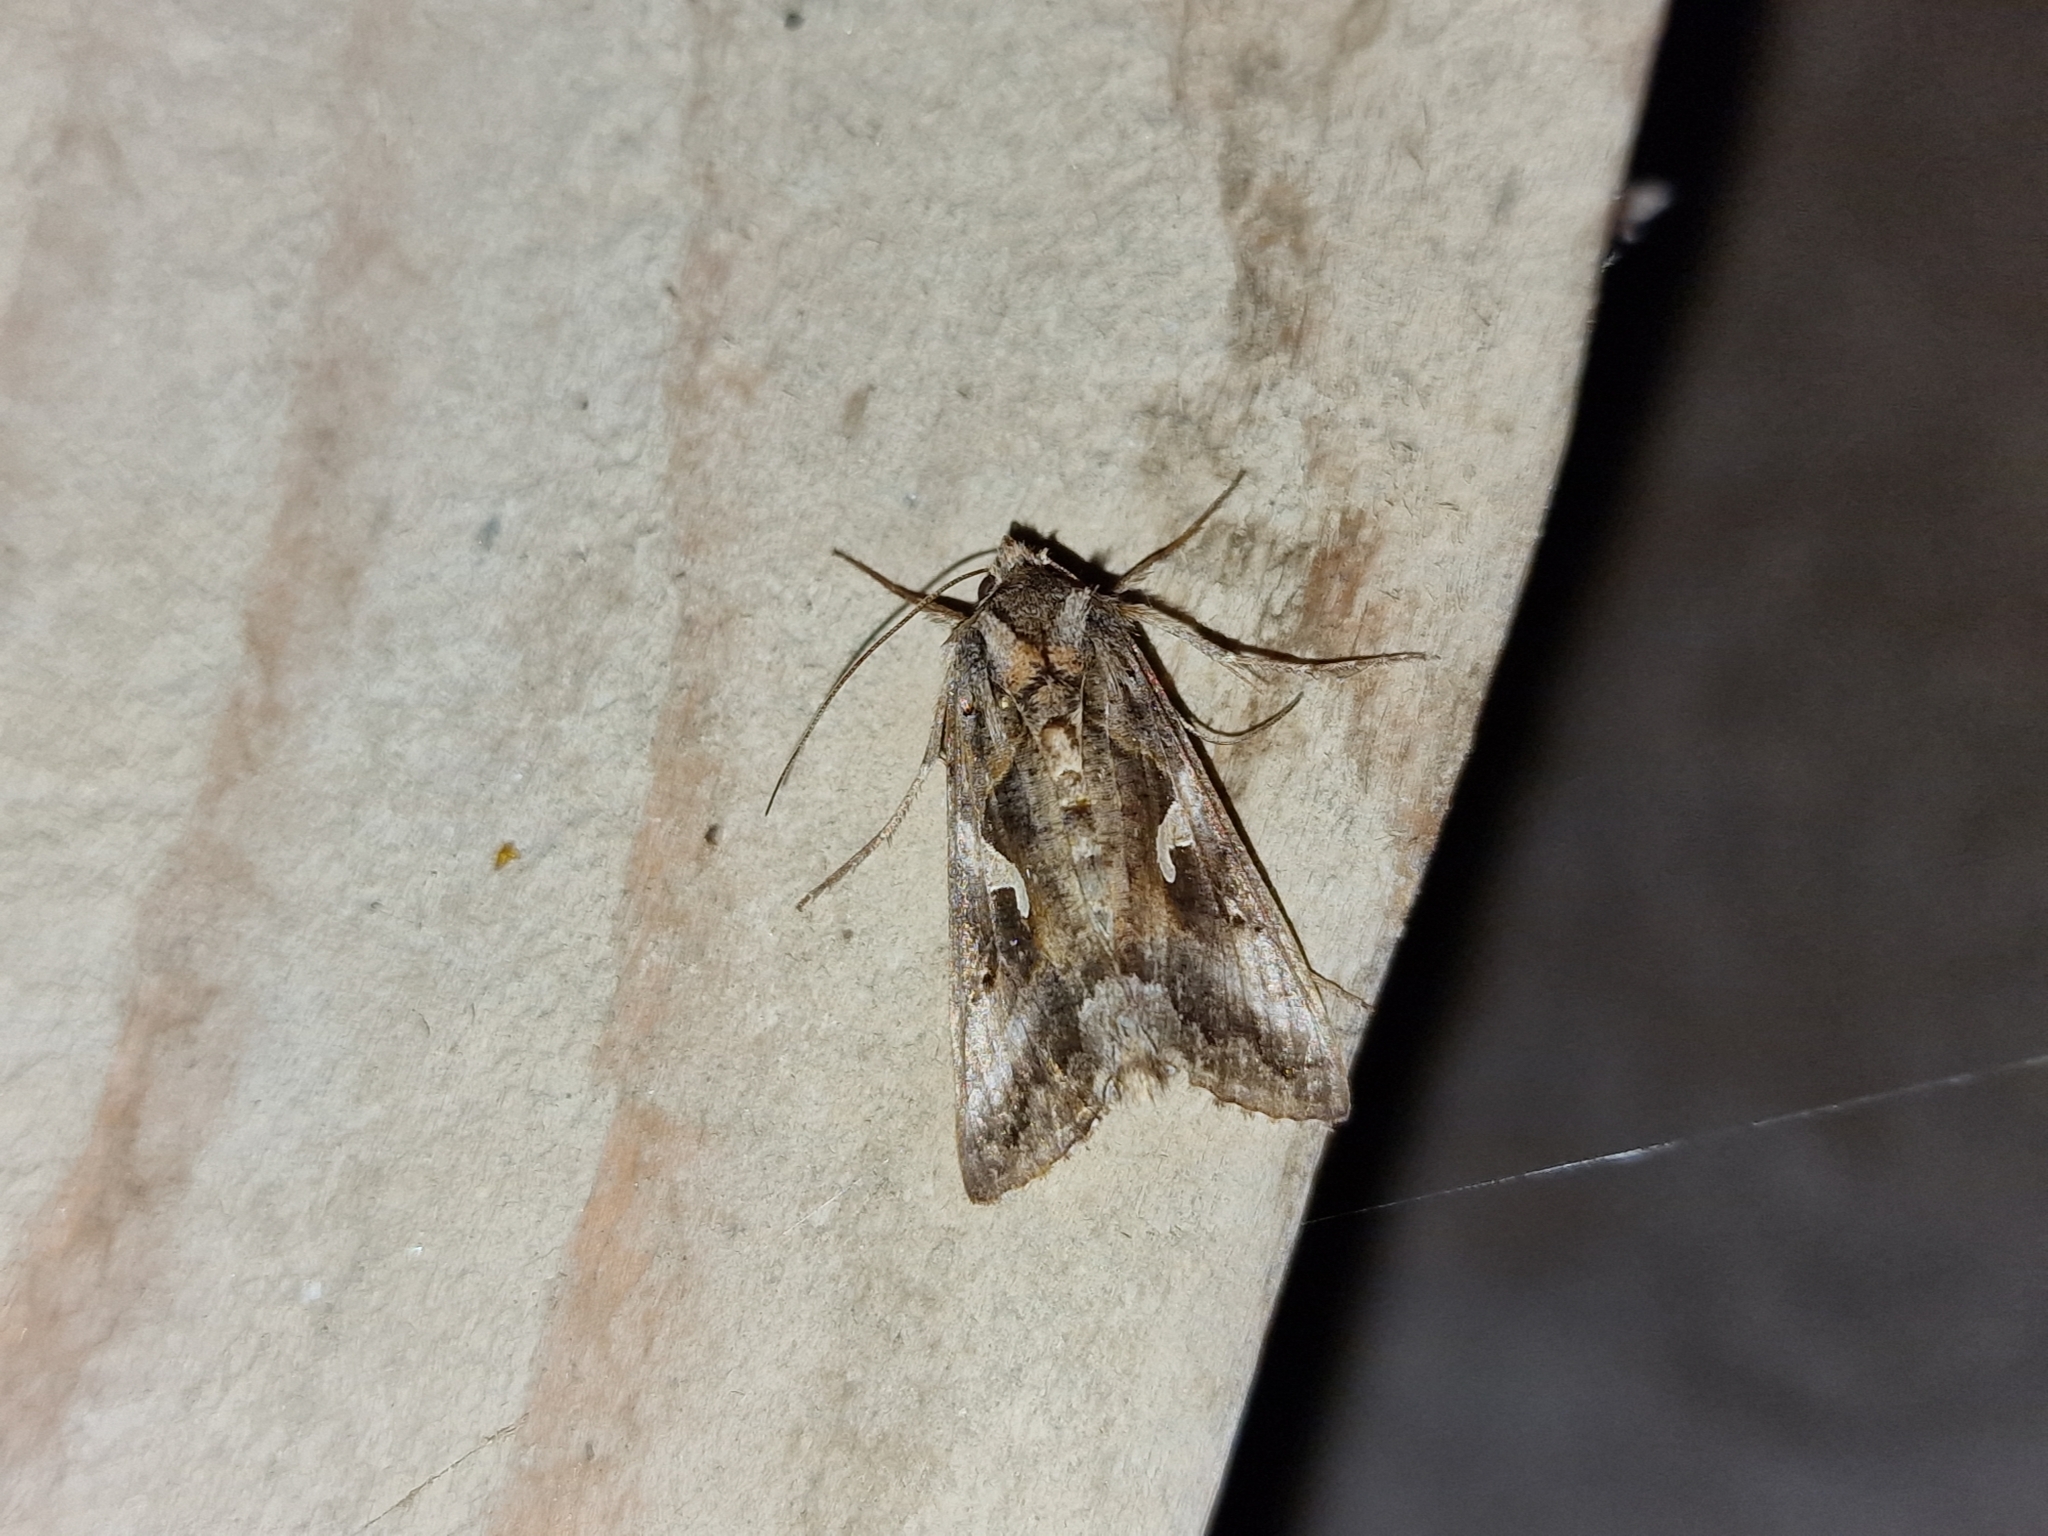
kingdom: Animalia
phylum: Arthropoda
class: Insecta
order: Lepidoptera
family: Noctuidae
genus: Autographa
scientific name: Autographa gamma
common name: Silver y
